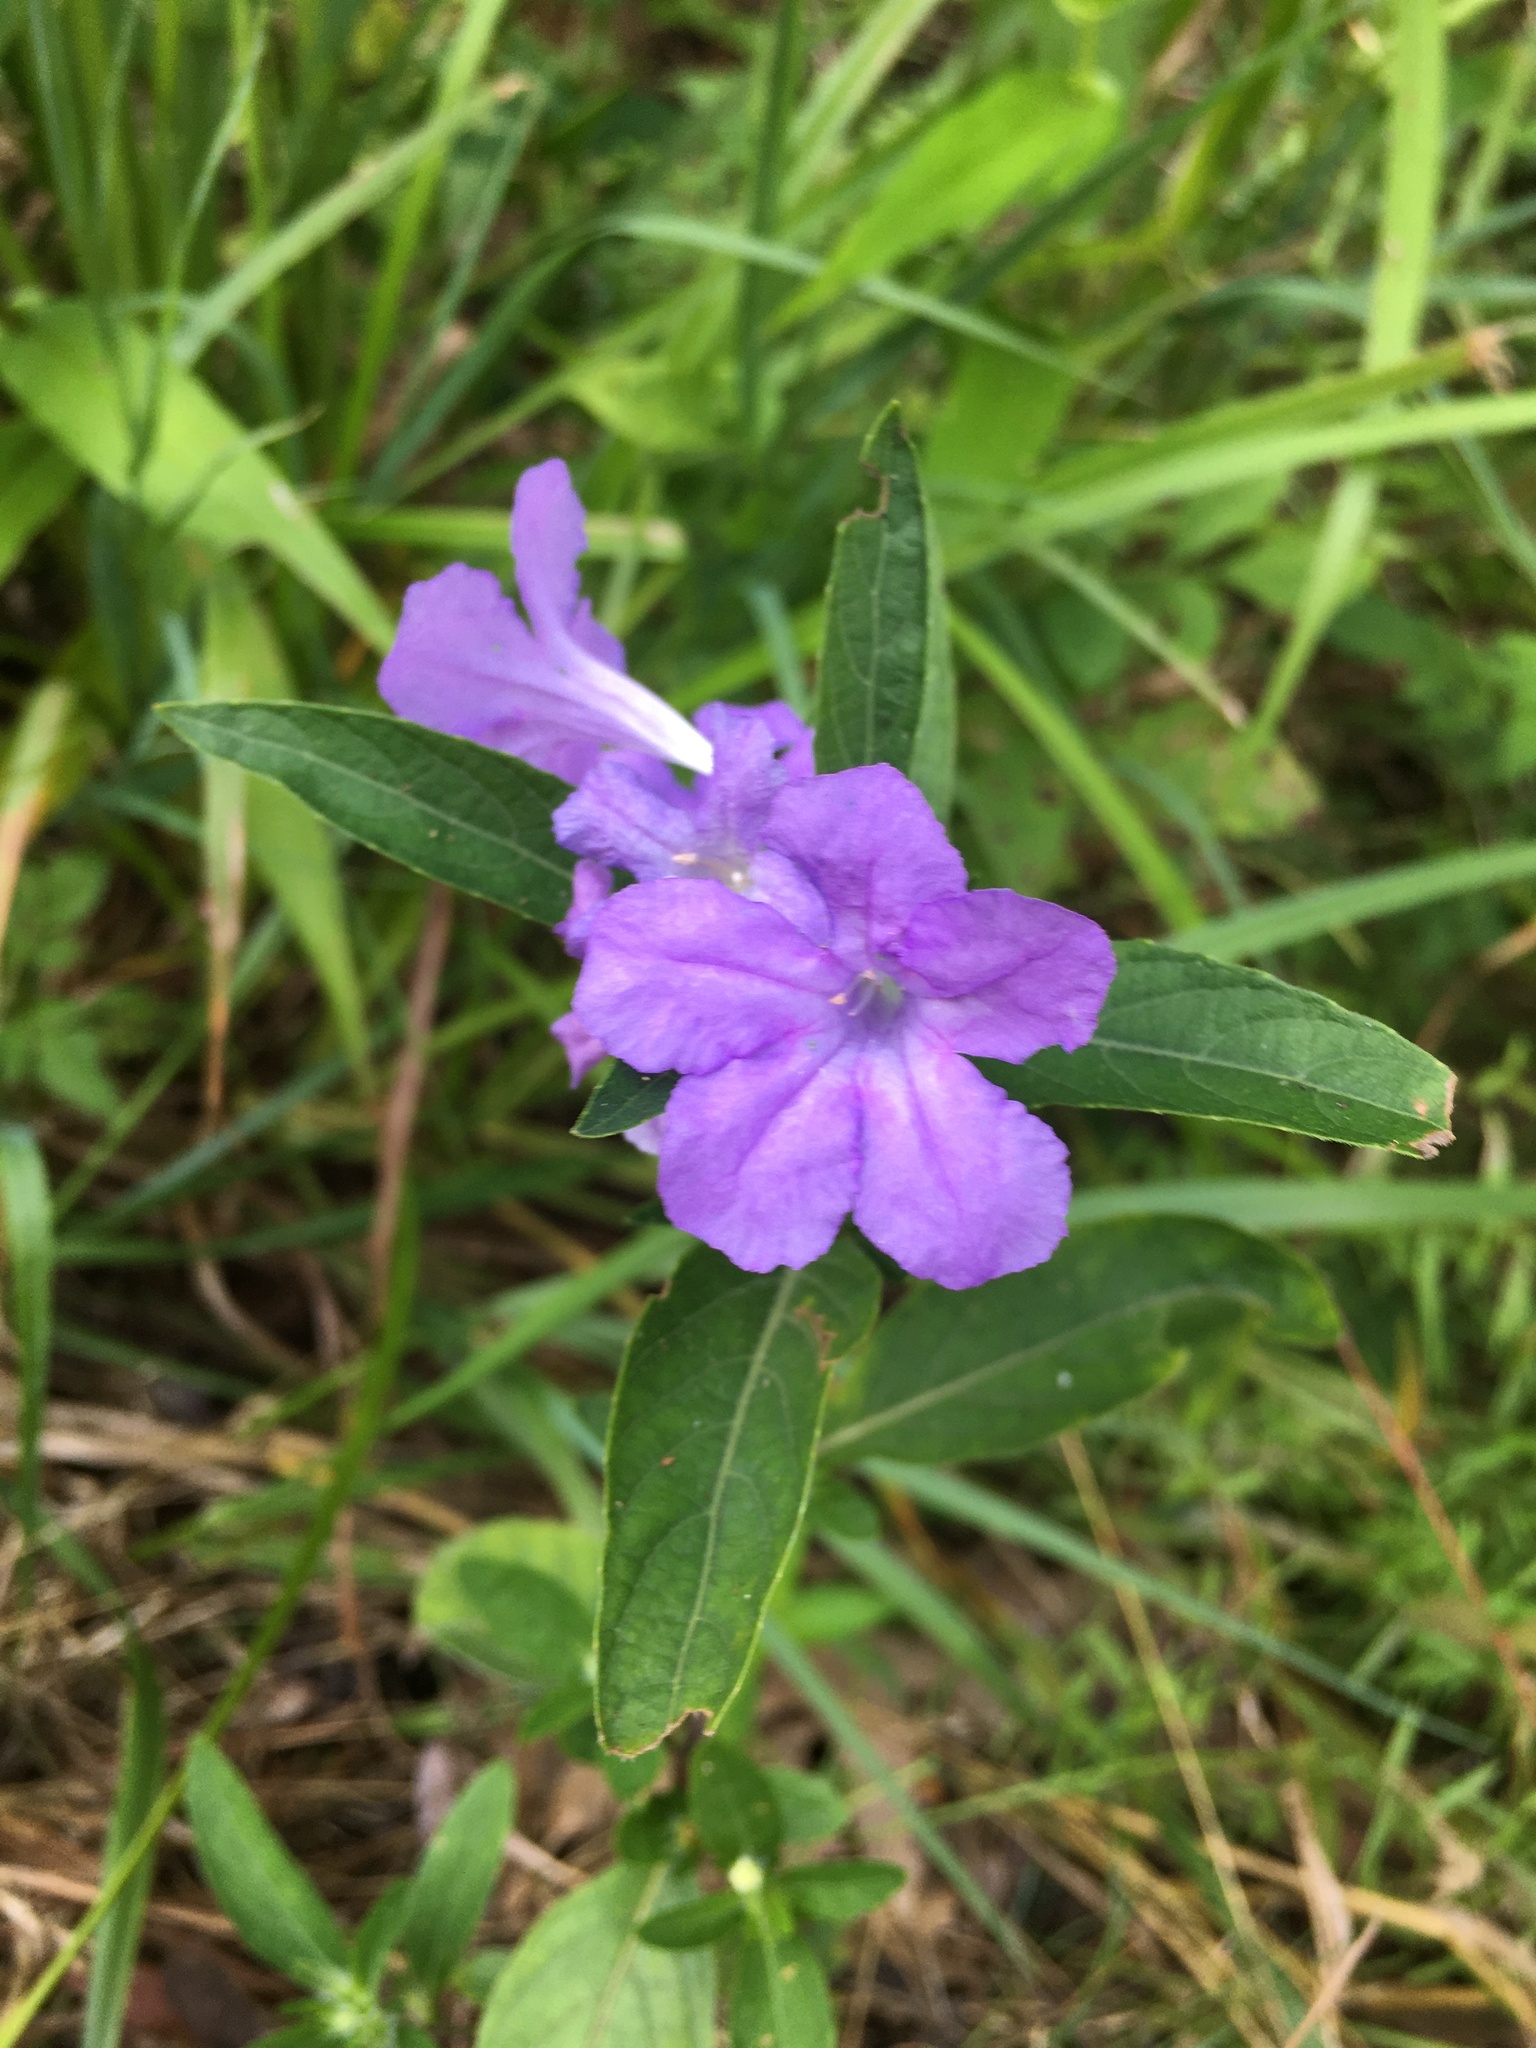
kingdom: Plantae
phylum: Tracheophyta
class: Magnoliopsida
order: Lamiales
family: Acanthaceae
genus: Ruellia
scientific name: Ruellia caroliniensis
